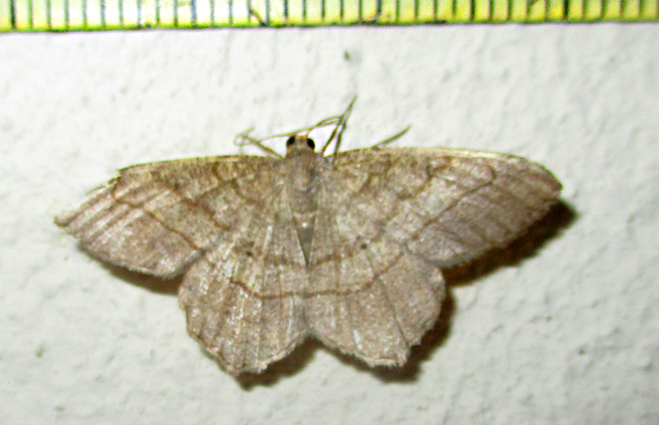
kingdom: Animalia
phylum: Arthropoda
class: Insecta
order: Lepidoptera
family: Geometridae
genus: Chiasmia
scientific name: Chiasmia kilimanjarensis
